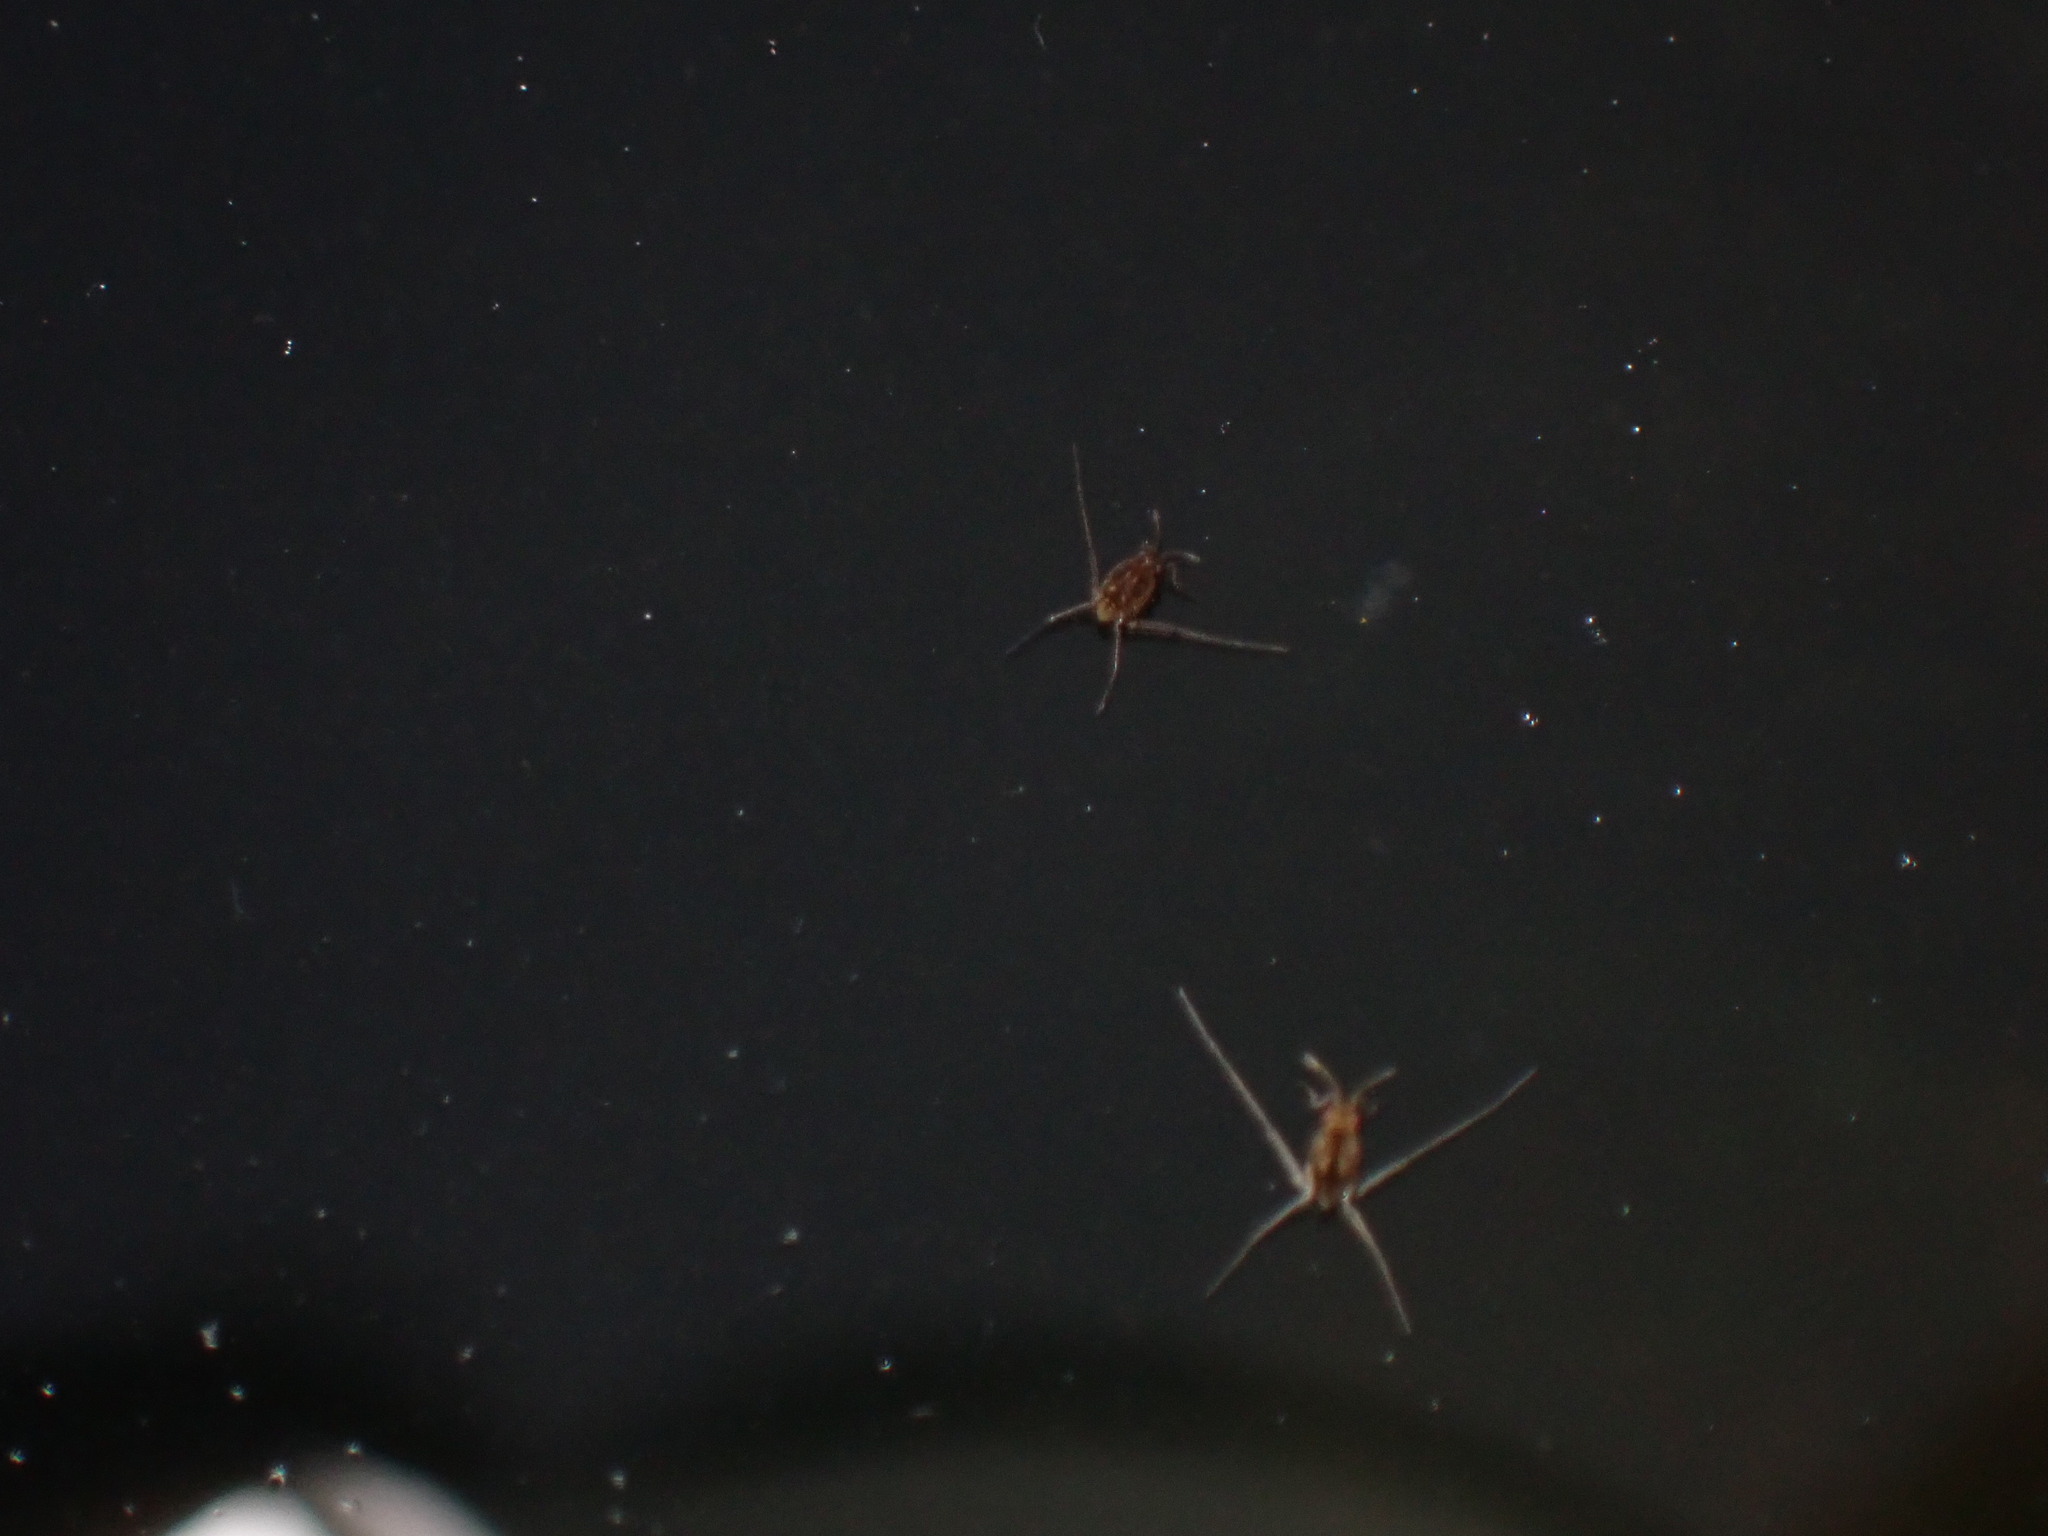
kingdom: Animalia
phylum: Arthropoda
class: Insecta
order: Hemiptera
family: Gerridae
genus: Trepobates
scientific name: Trepobates
